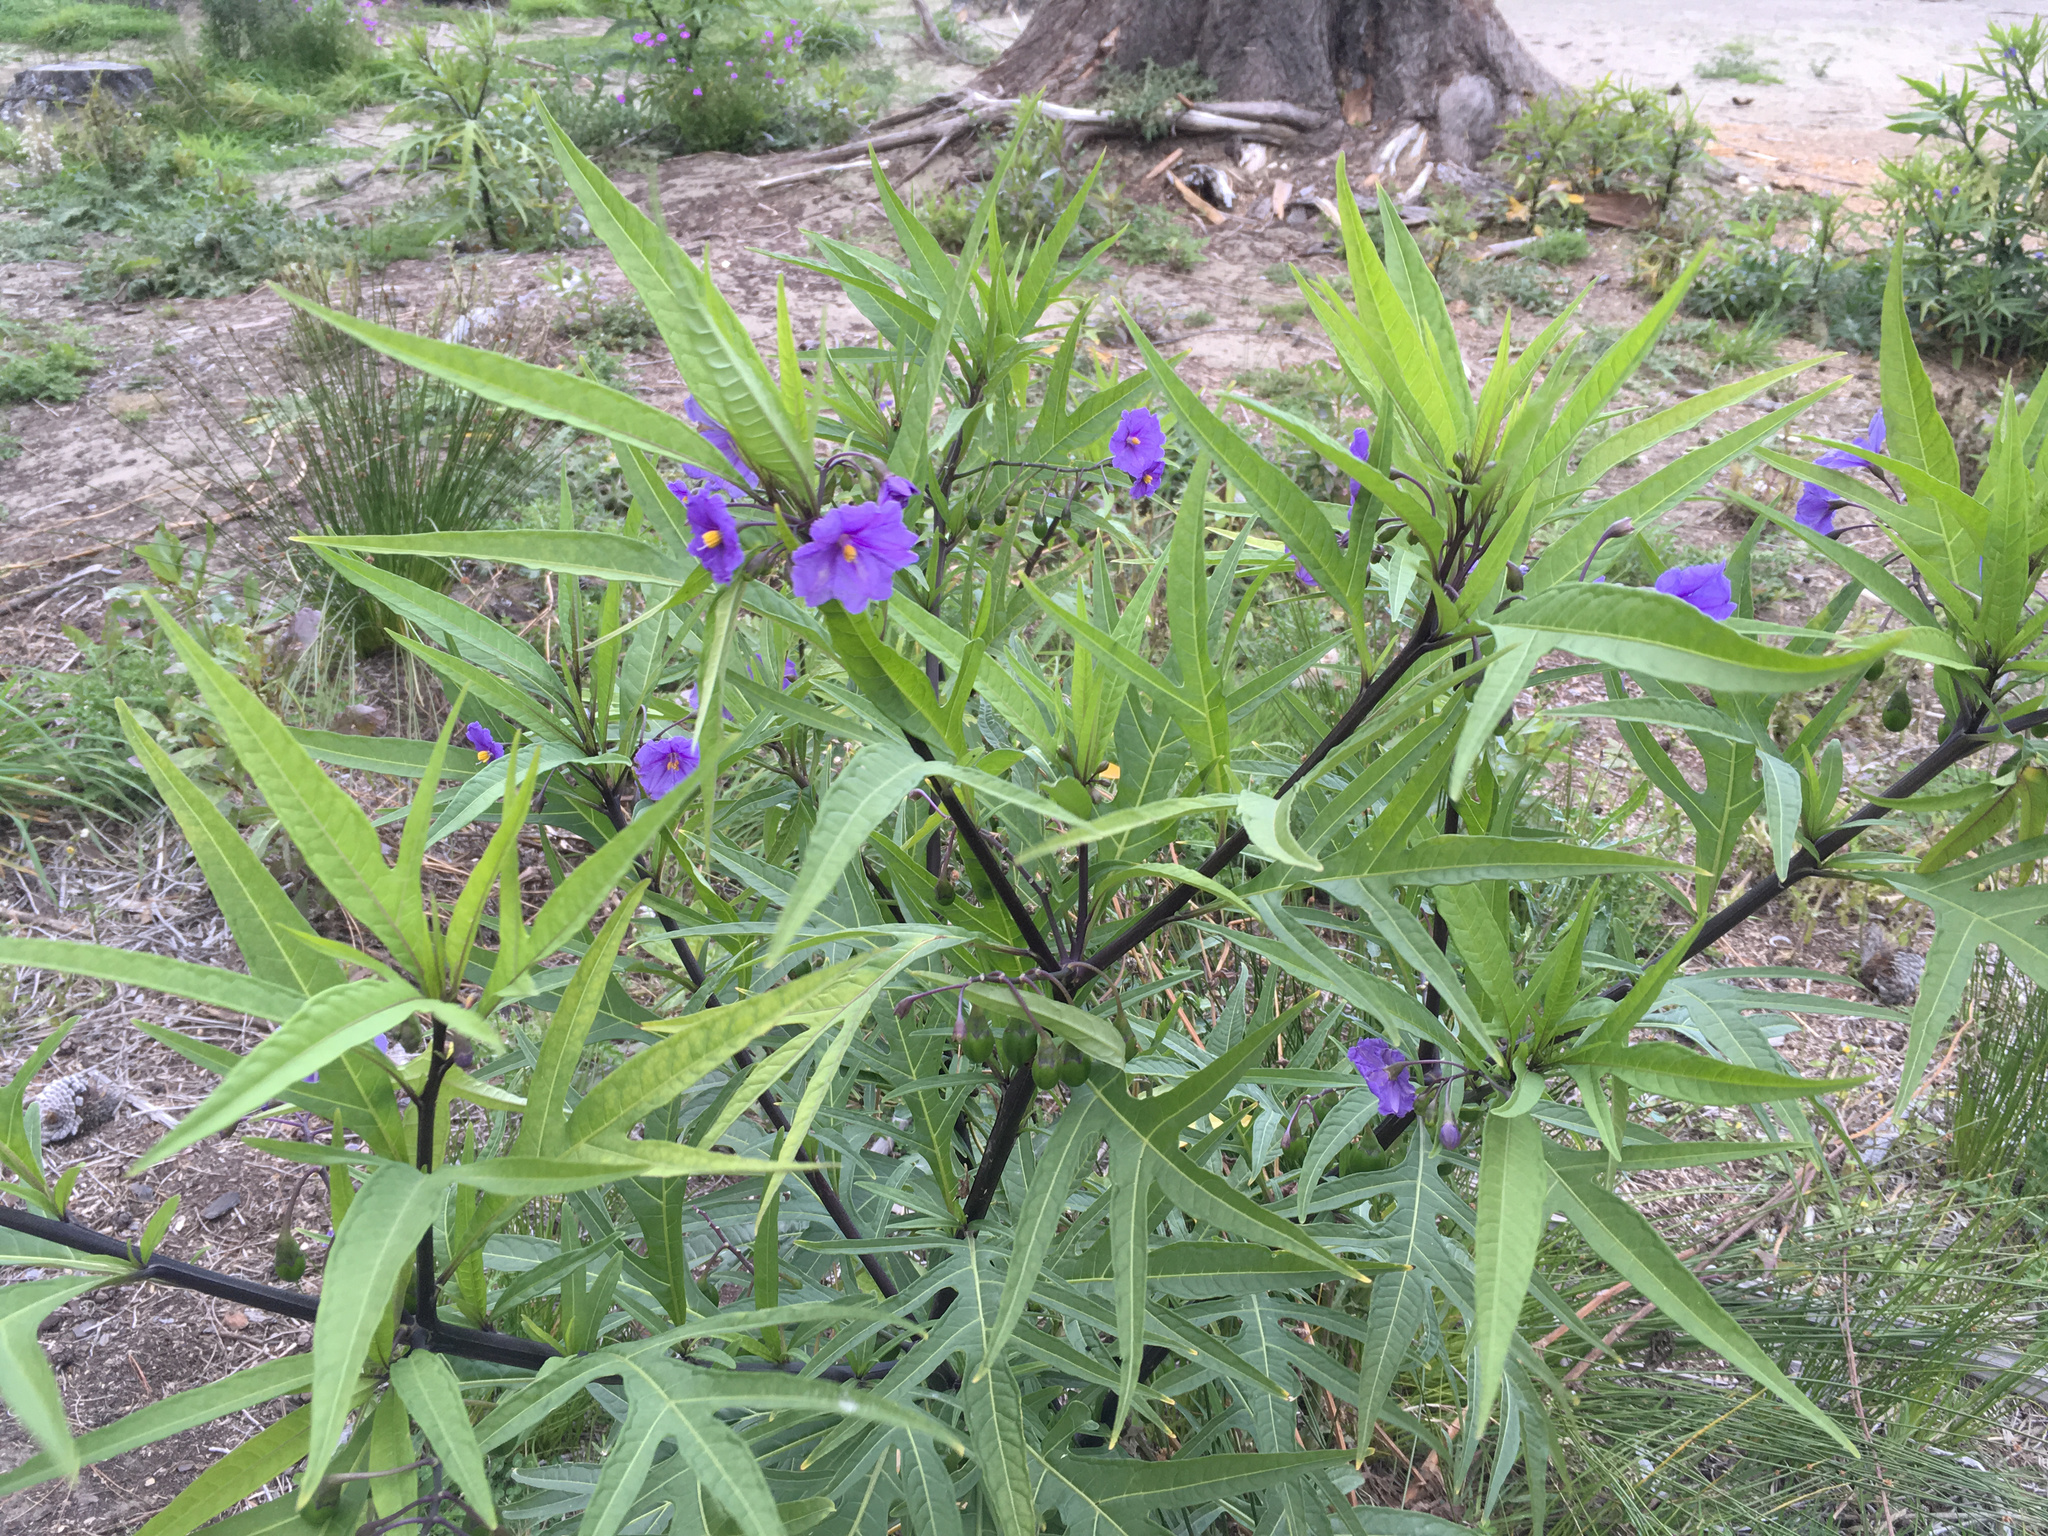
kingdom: Plantae
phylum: Tracheophyta
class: Magnoliopsida
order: Solanales
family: Solanaceae
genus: Solanum
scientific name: Solanum laciniatum
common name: Kangaroo-apple
